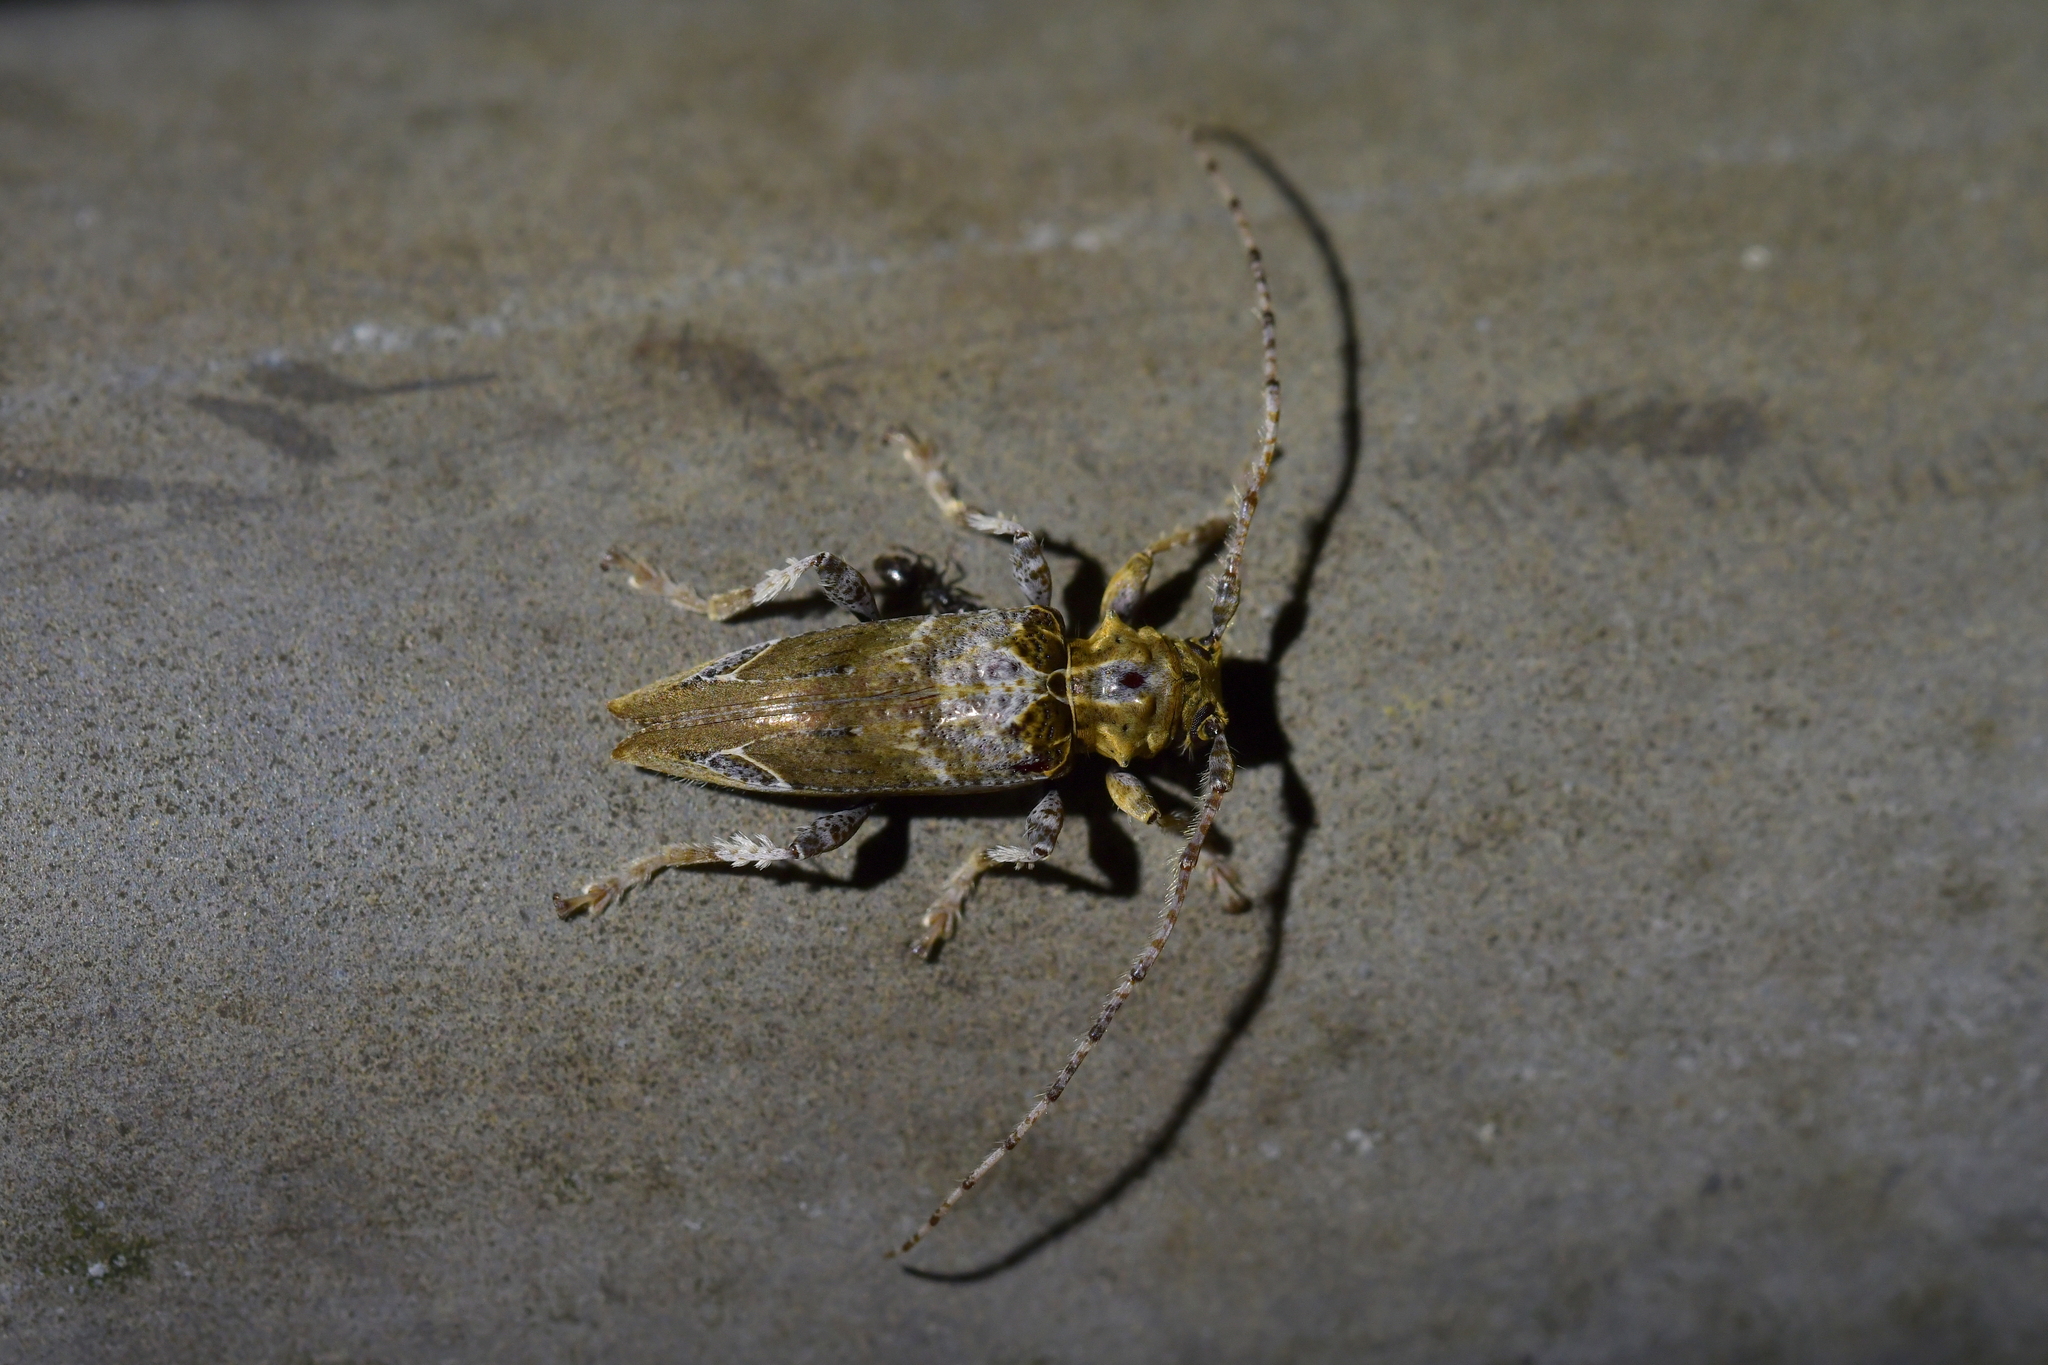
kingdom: Animalia
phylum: Arthropoda
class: Insecta
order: Coleoptera
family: Cerambycidae
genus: Tetrorea
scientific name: Tetrorea cilipes
